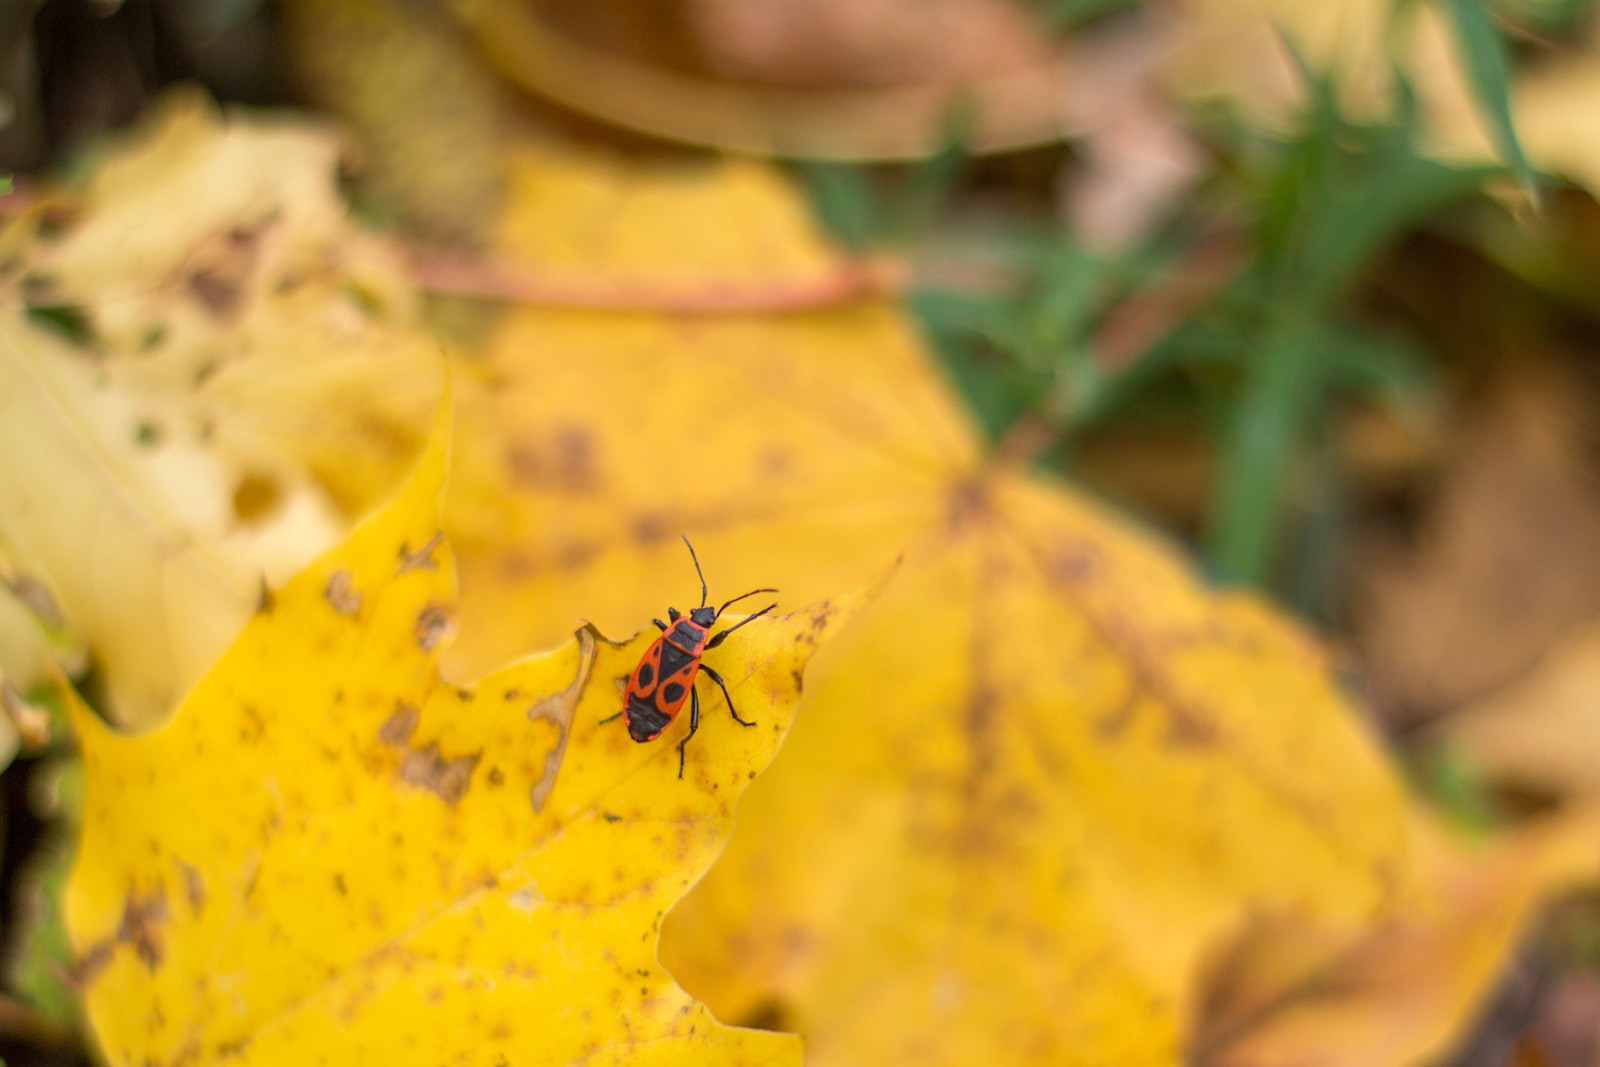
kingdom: Animalia
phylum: Arthropoda
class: Insecta
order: Hemiptera
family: Pyrrhocoridae
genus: Pyrrhocoris
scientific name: Pyrrhocoris apterus
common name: Firebug
